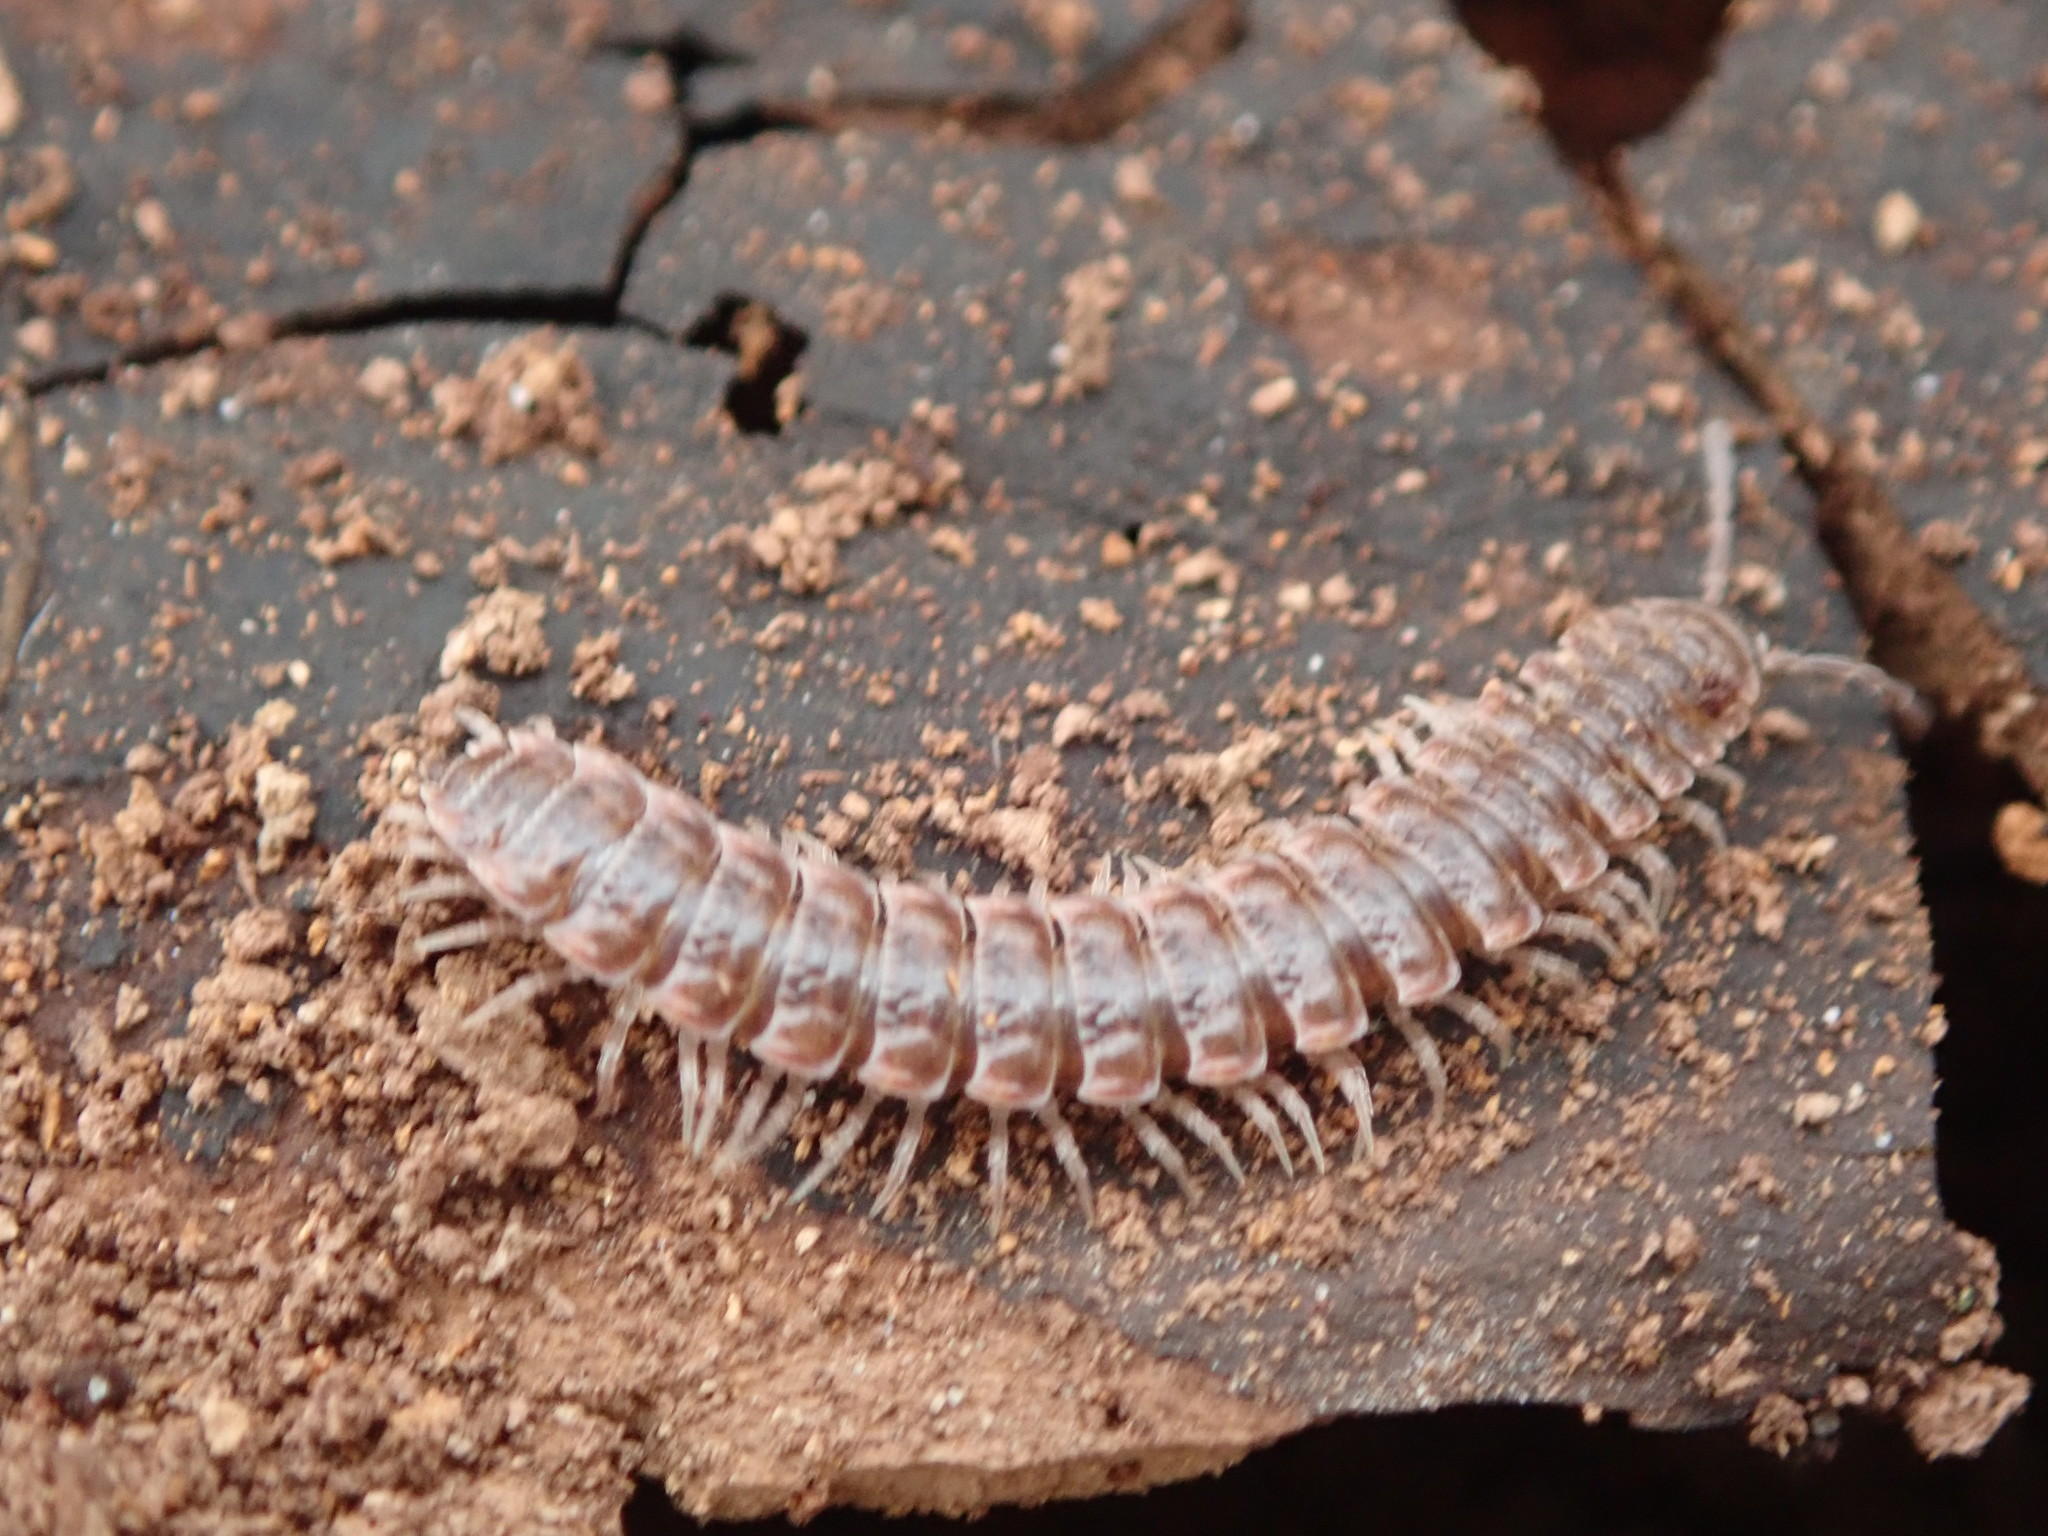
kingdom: Animalia
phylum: Arthropoda
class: Diplopoda
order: Polydesmida
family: Polydesmidae
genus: Pseudopolydesmus
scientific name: Pseudopolydesmus serratus
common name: Common pink flat-back millipede
